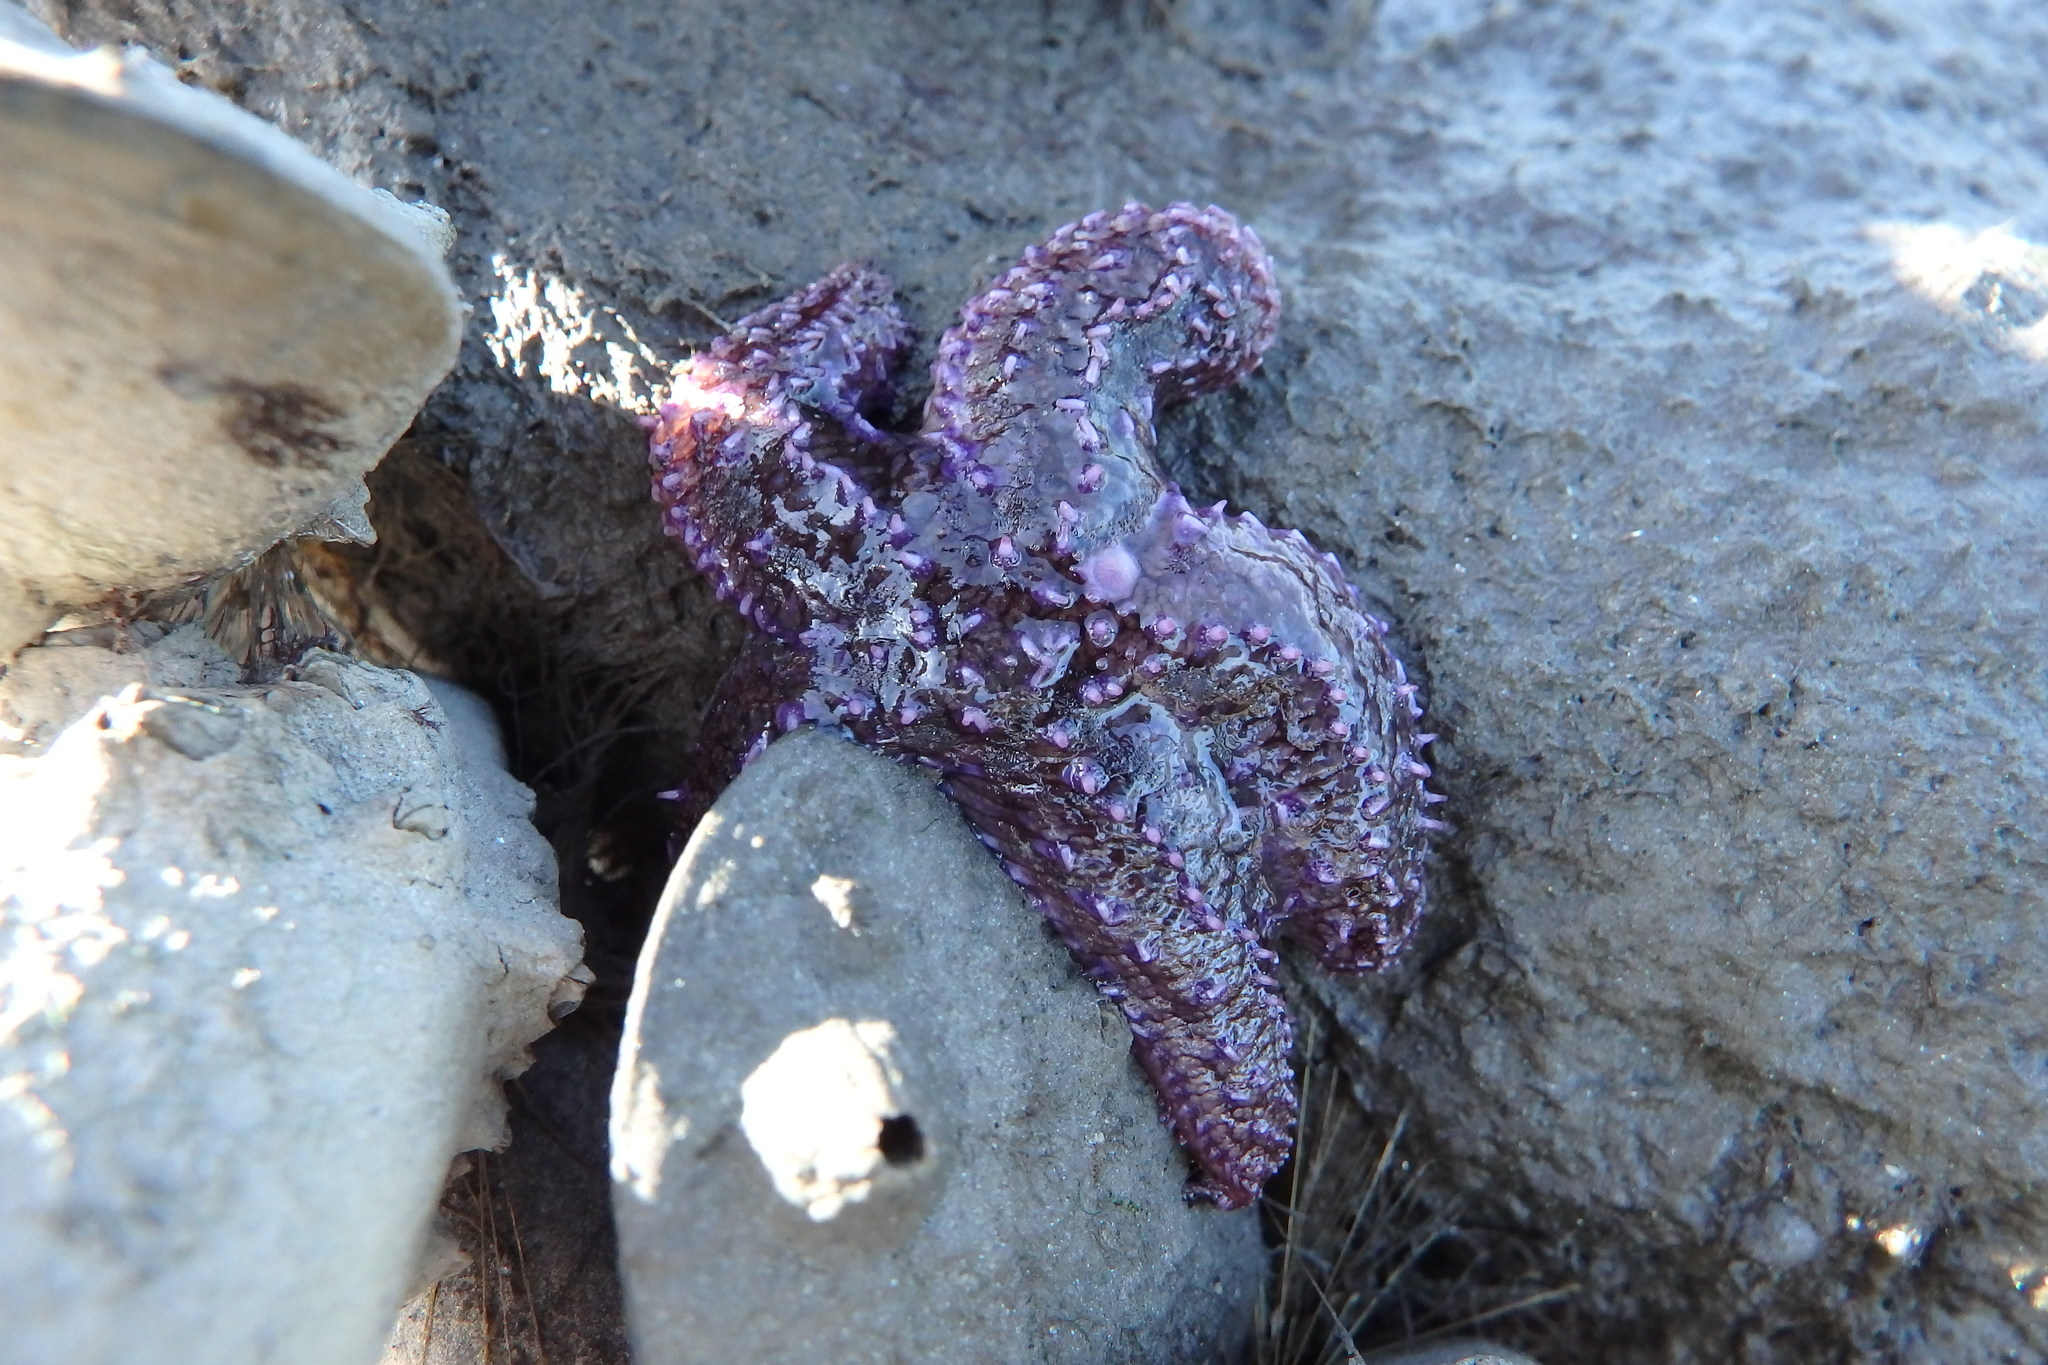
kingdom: Animalia
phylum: Echinodermata
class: Asteroidea
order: Forcipulatida
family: Asteriidae
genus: Asterias
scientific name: Asterias rubens
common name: Common starfish
